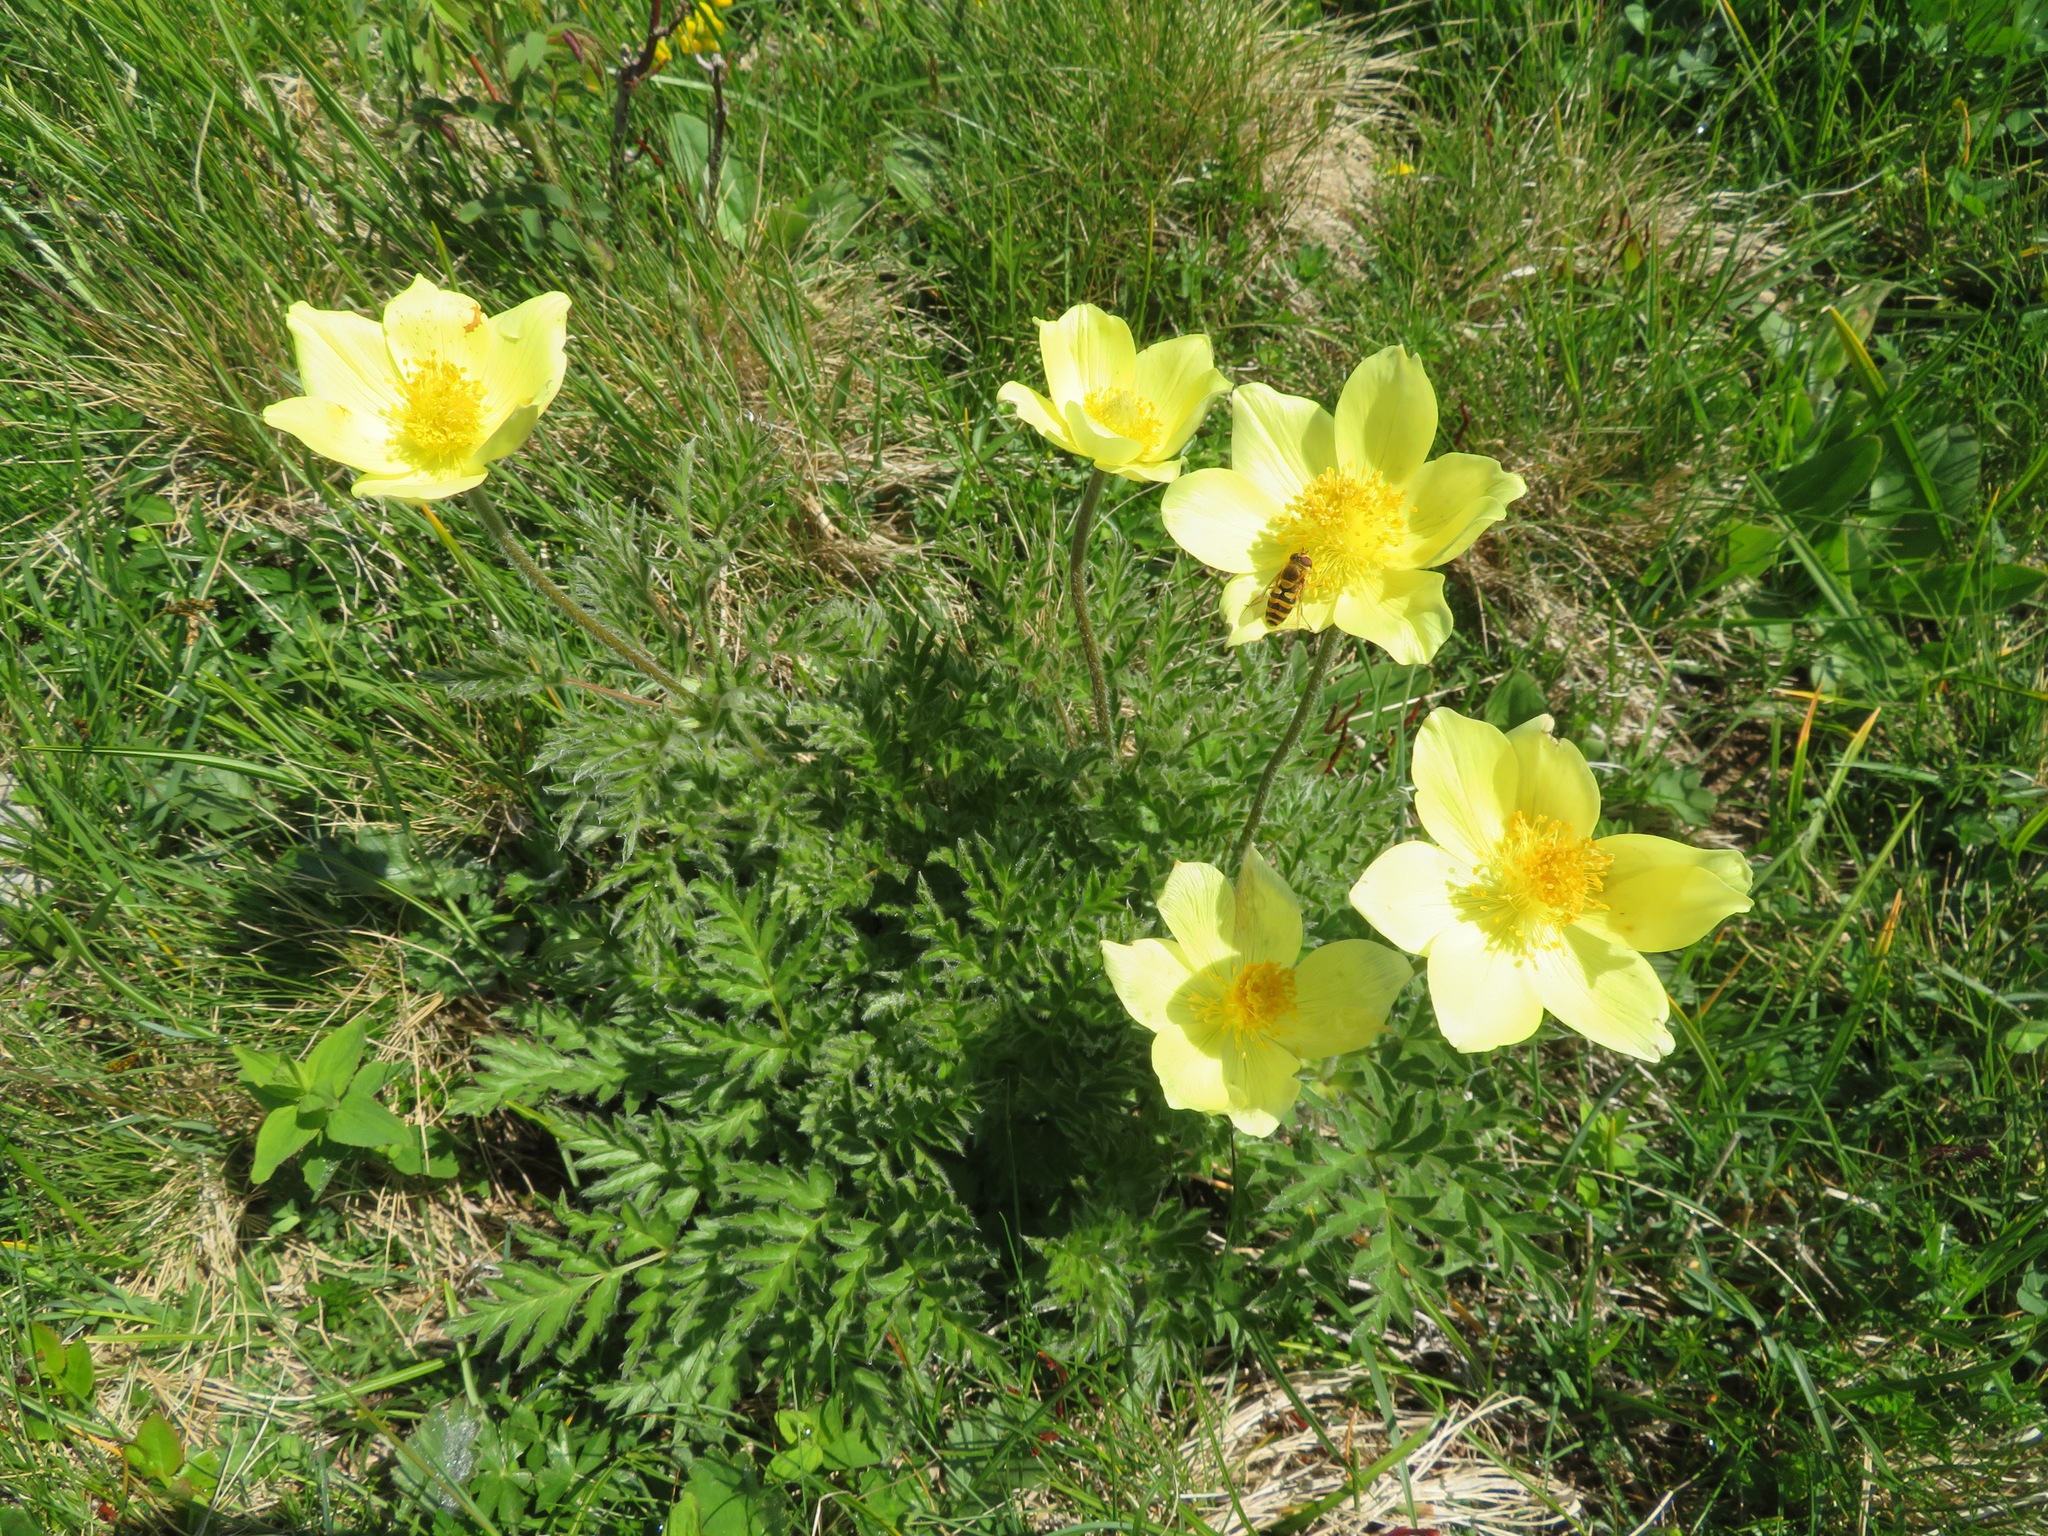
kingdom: Plantae
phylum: Tracheophyta
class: Magnoliopsida
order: Ranunculales
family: Ranunculaceae
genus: Pulsatilla
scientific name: Pulsatilla alpina
